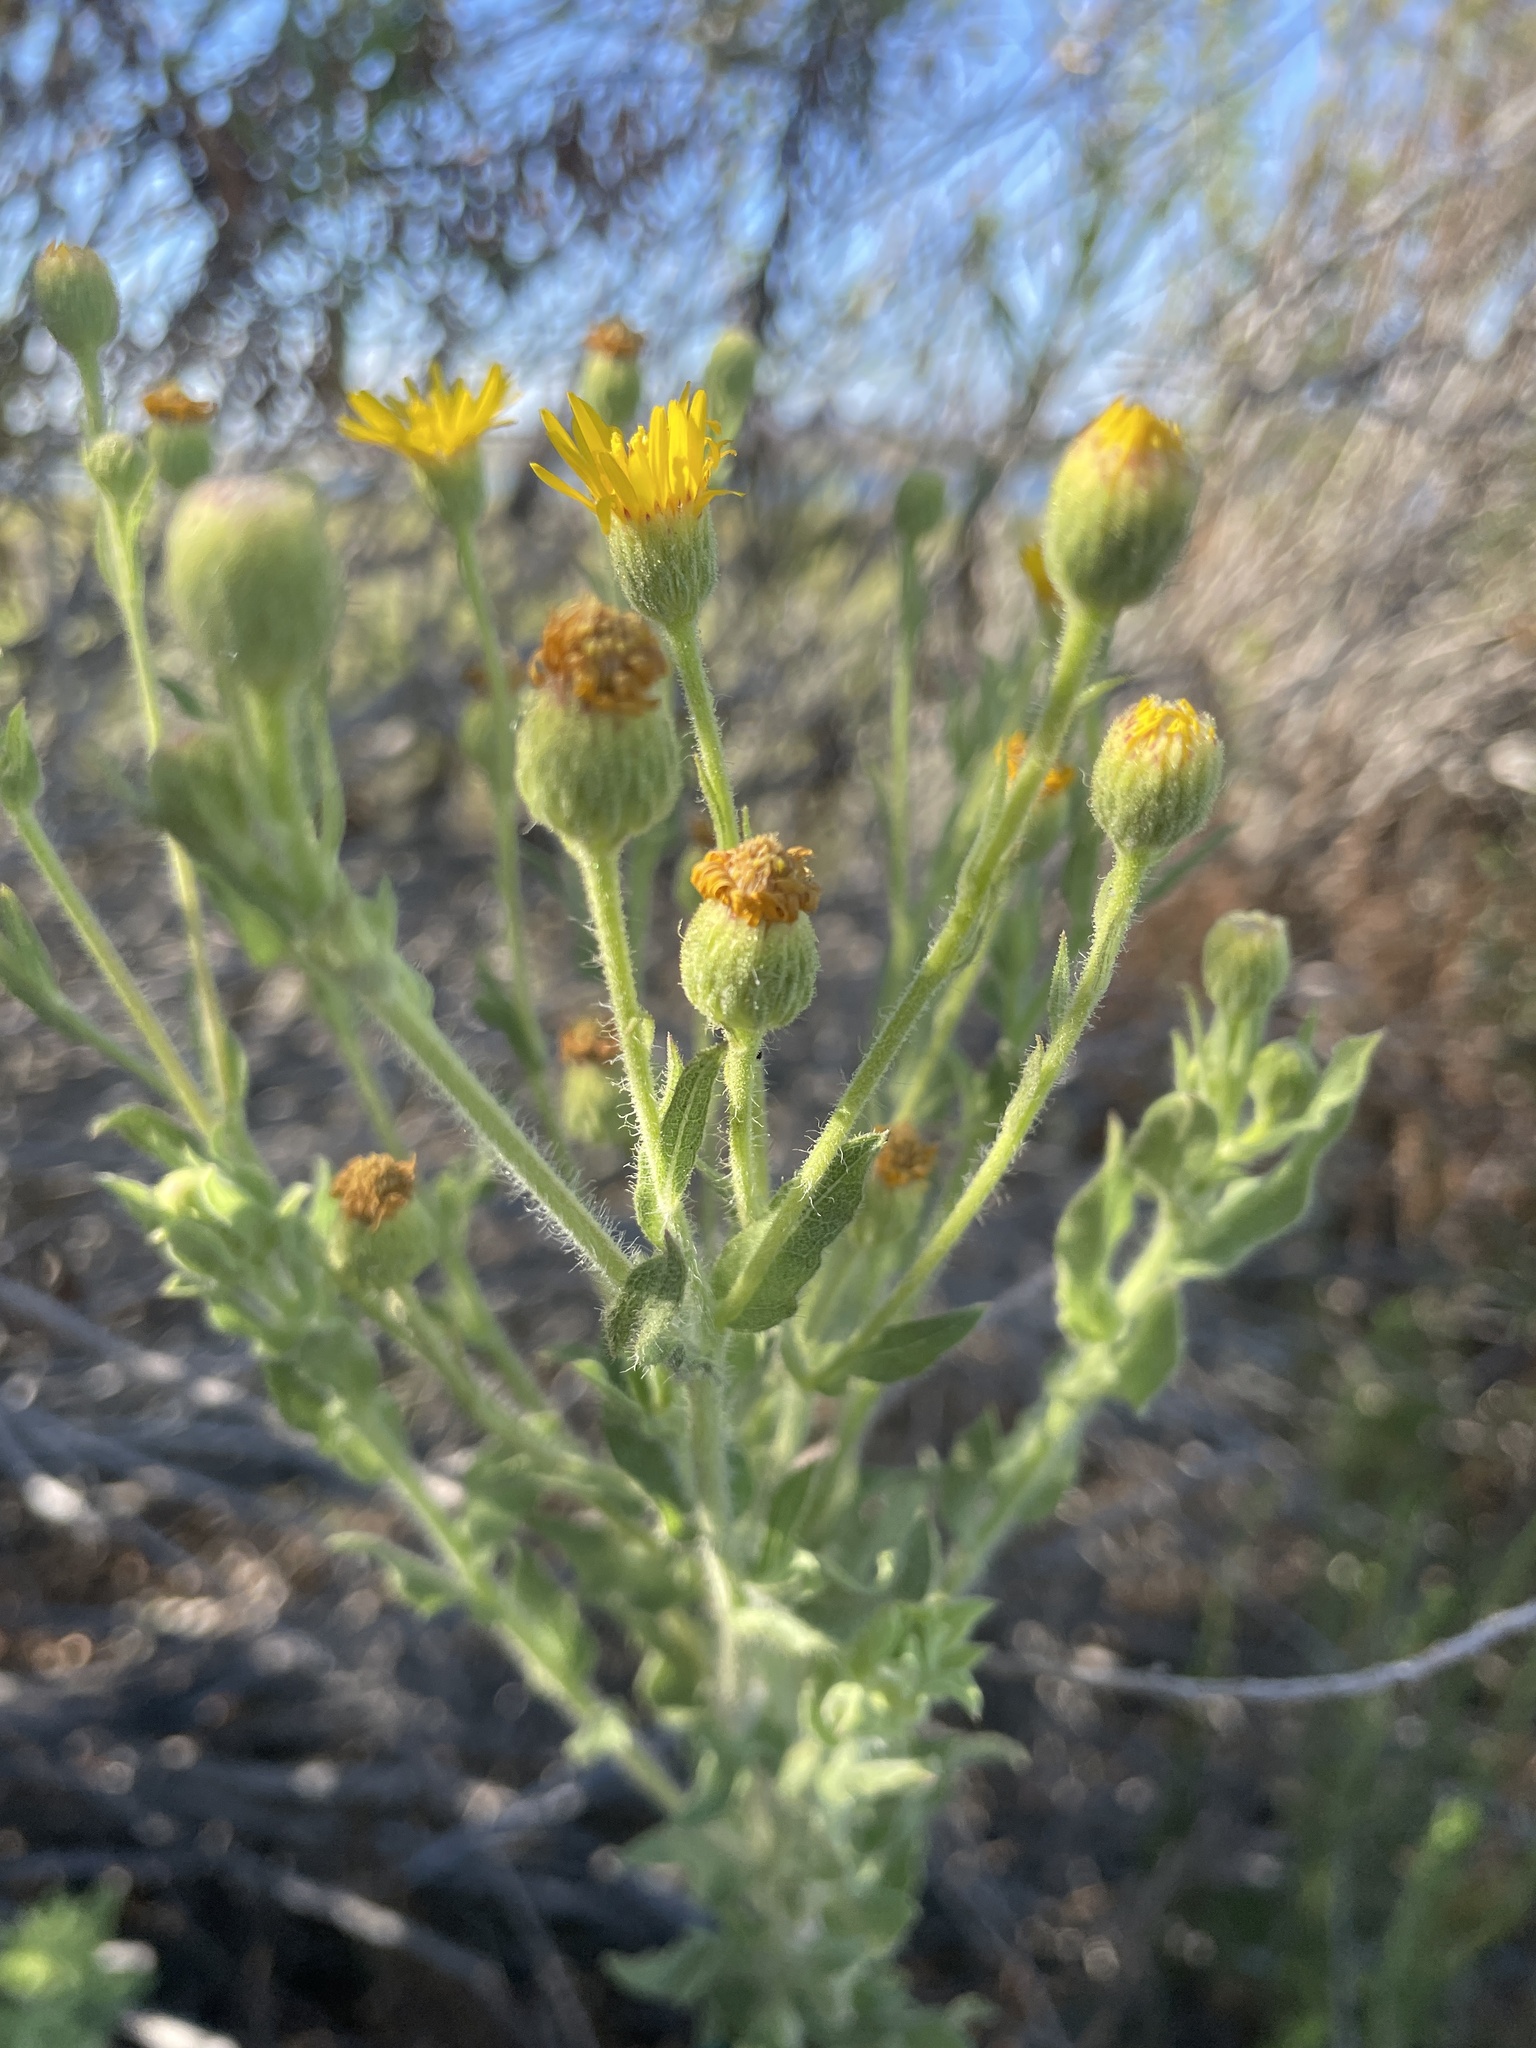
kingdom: Plantae
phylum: Tracheophyta
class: Magnoliopsida
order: Asterales
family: Asteraceae
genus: Heterotheca
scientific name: Heterotheca grandiflora
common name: Telegraphweed
